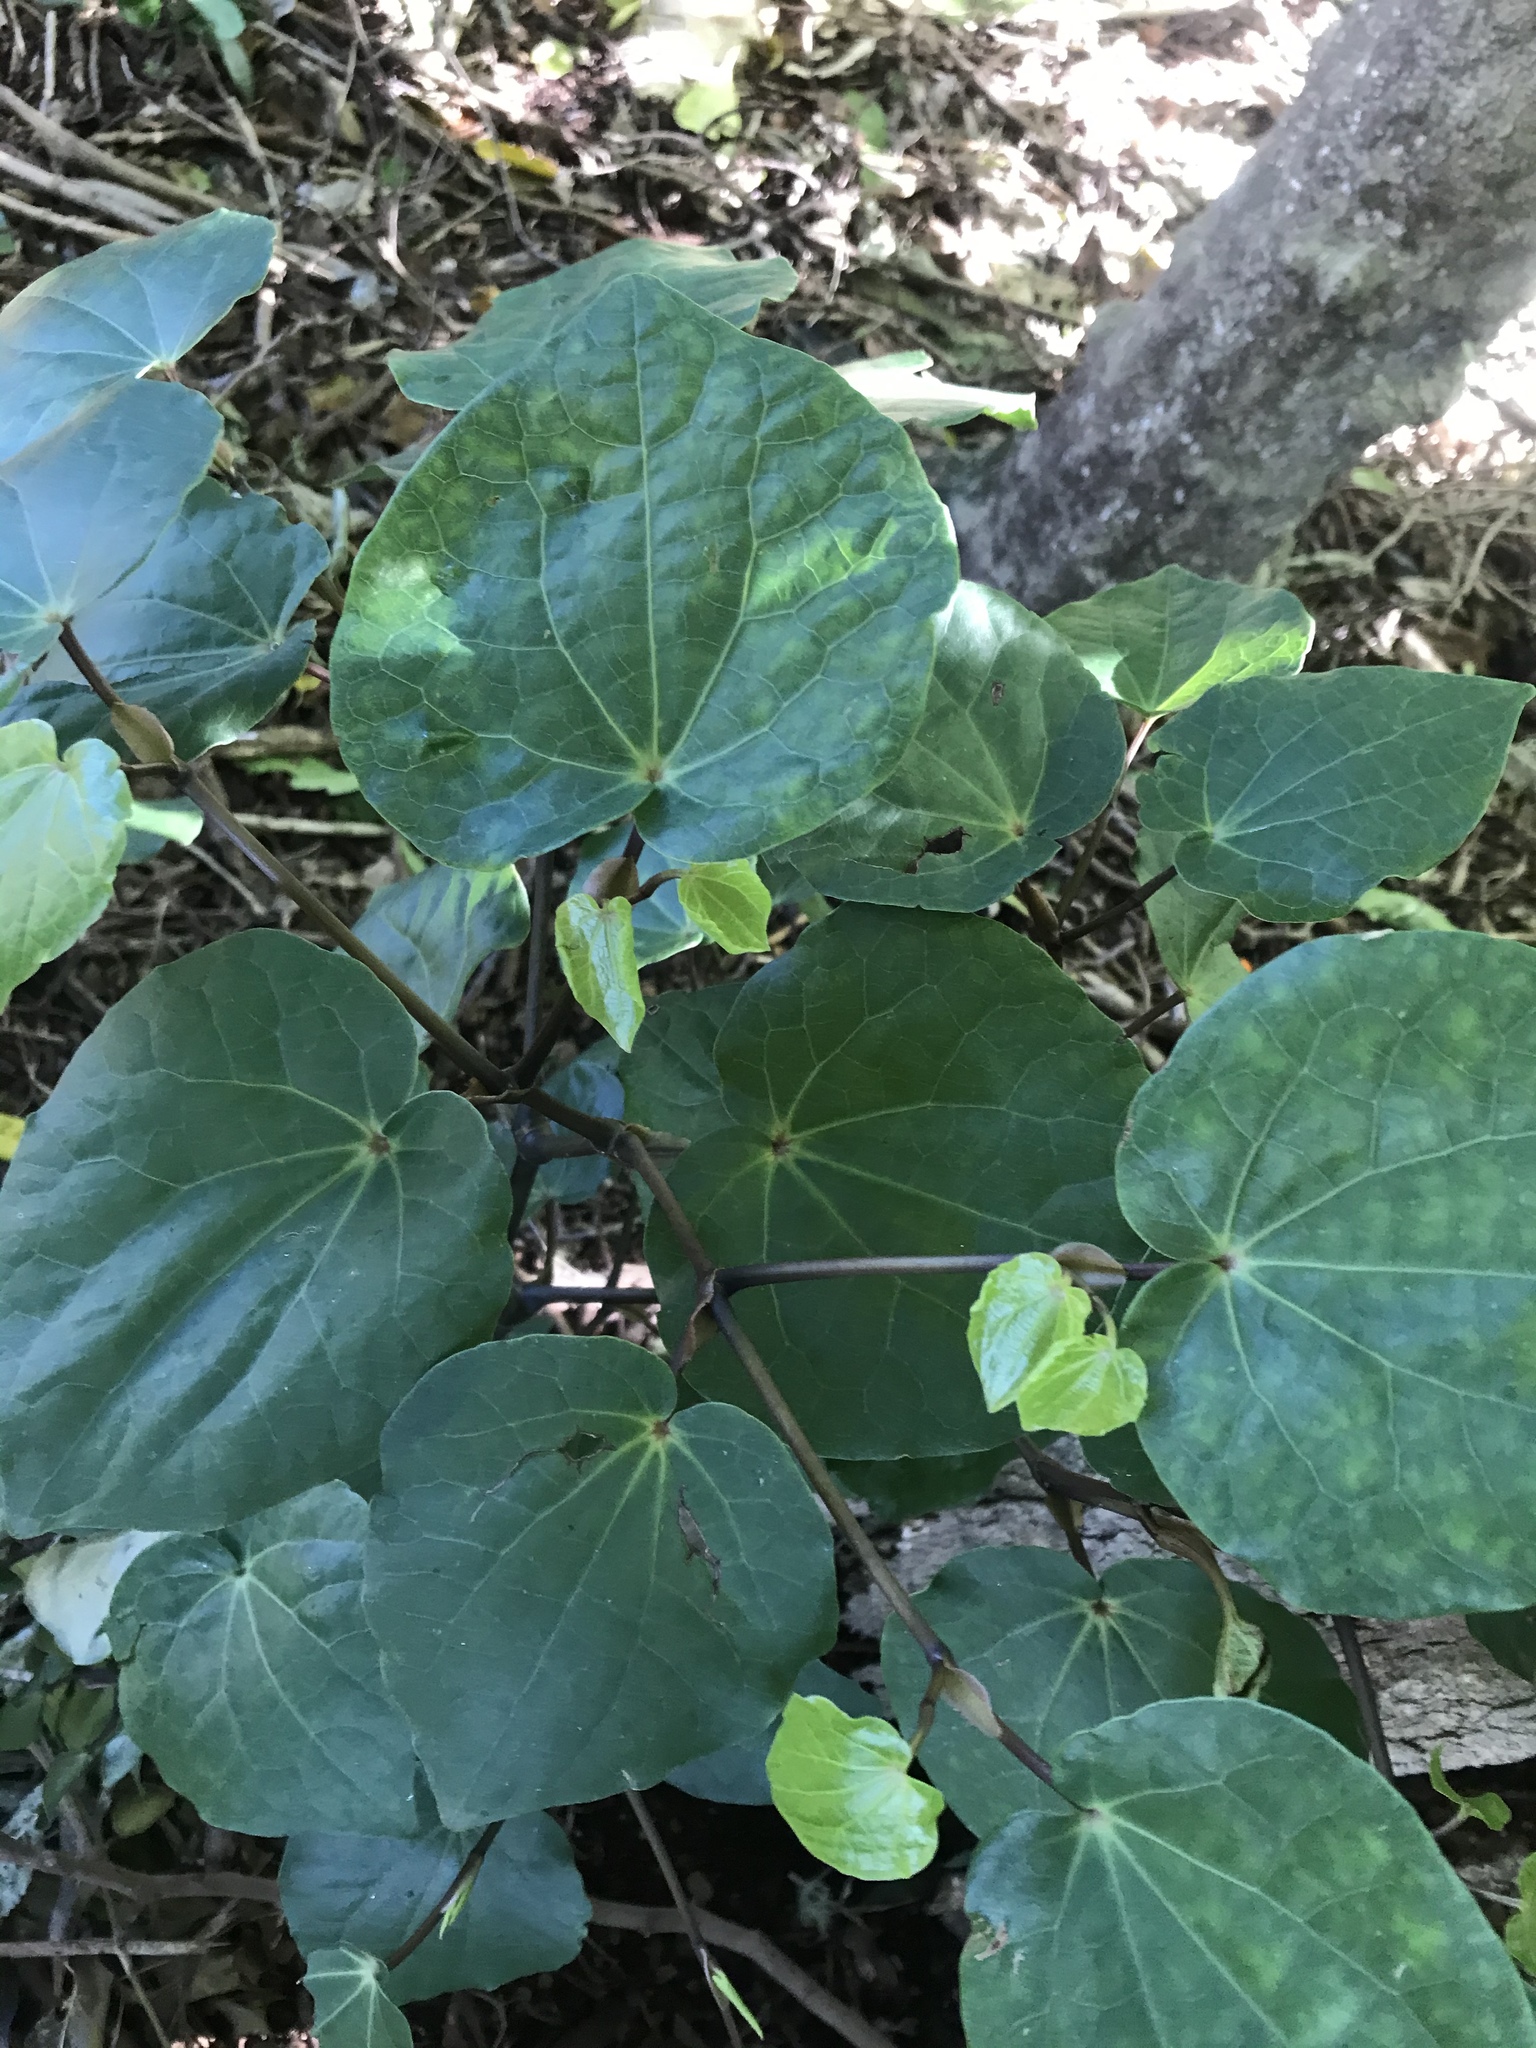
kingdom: Plantae
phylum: Tracheophyta
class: Magnoliopsida
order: Piperales
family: Piperaceae
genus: Macropiper
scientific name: Macropiper excelsum
